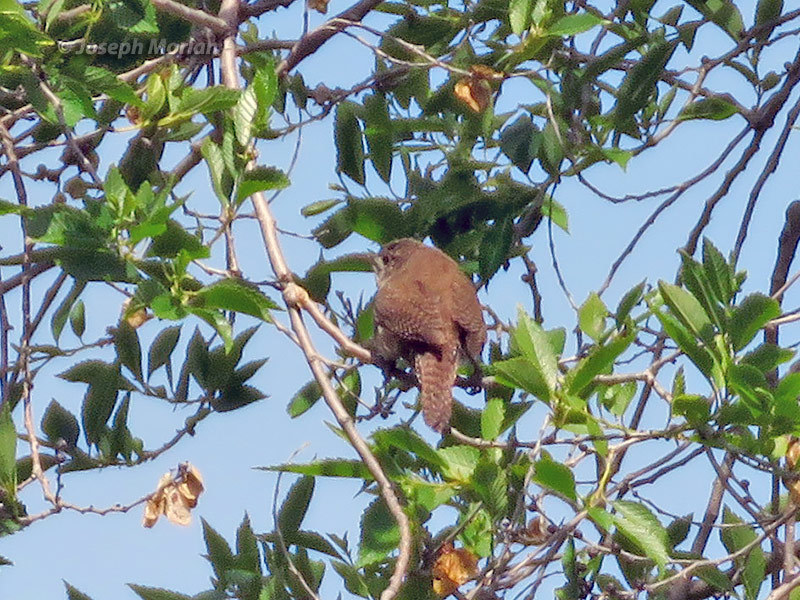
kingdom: Animalia
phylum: Chordata
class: Aves
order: Passeriformes
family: Troglodytidae
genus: Troglodytes
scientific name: Troglodytes aedon
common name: House wren
